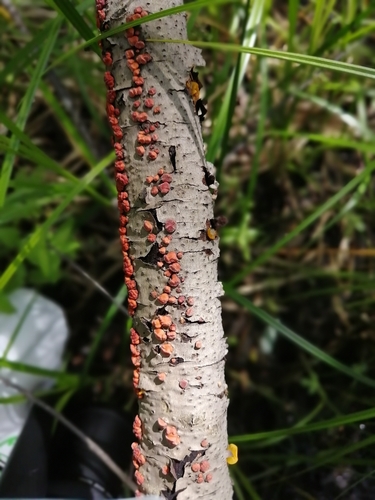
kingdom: Fungi
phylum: Basidiomycota
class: Agaricomycetes
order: Russulales
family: Peniophoraceae
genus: Peniophora
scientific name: Peniophora rufa
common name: Red tree brain fungus
